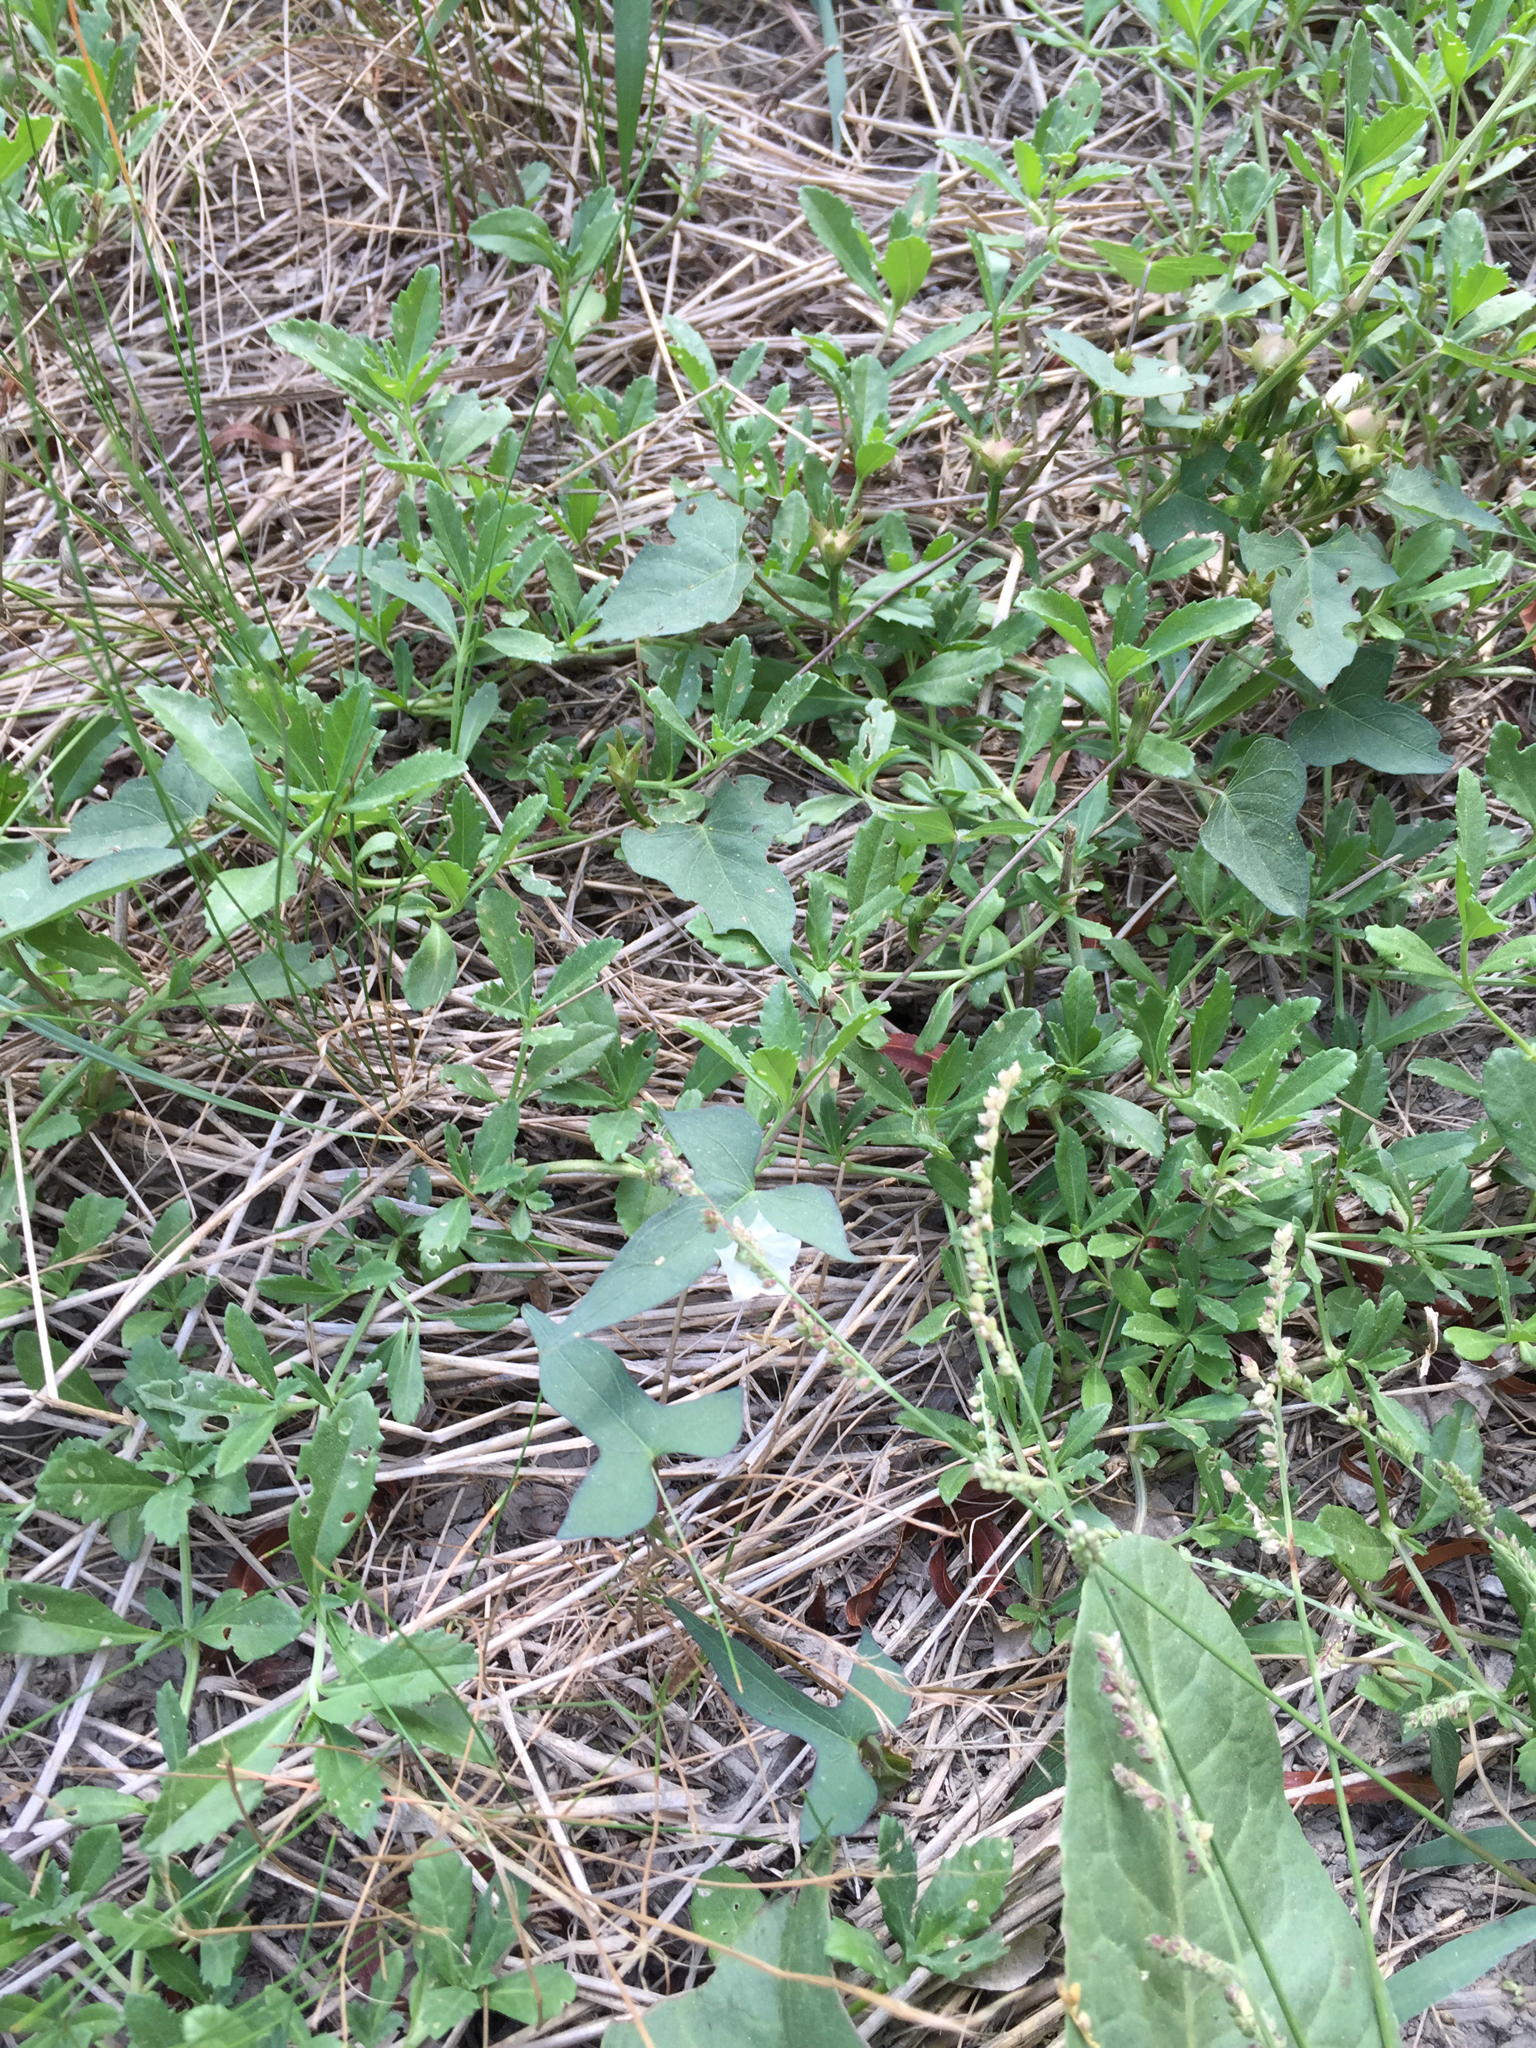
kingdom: Plantae
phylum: Tracheophyta
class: Magnoliopsida
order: Solanales
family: Convolvulaceae
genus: Ipomoea
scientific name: Ipomoea lacunosa
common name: White morning-glory
